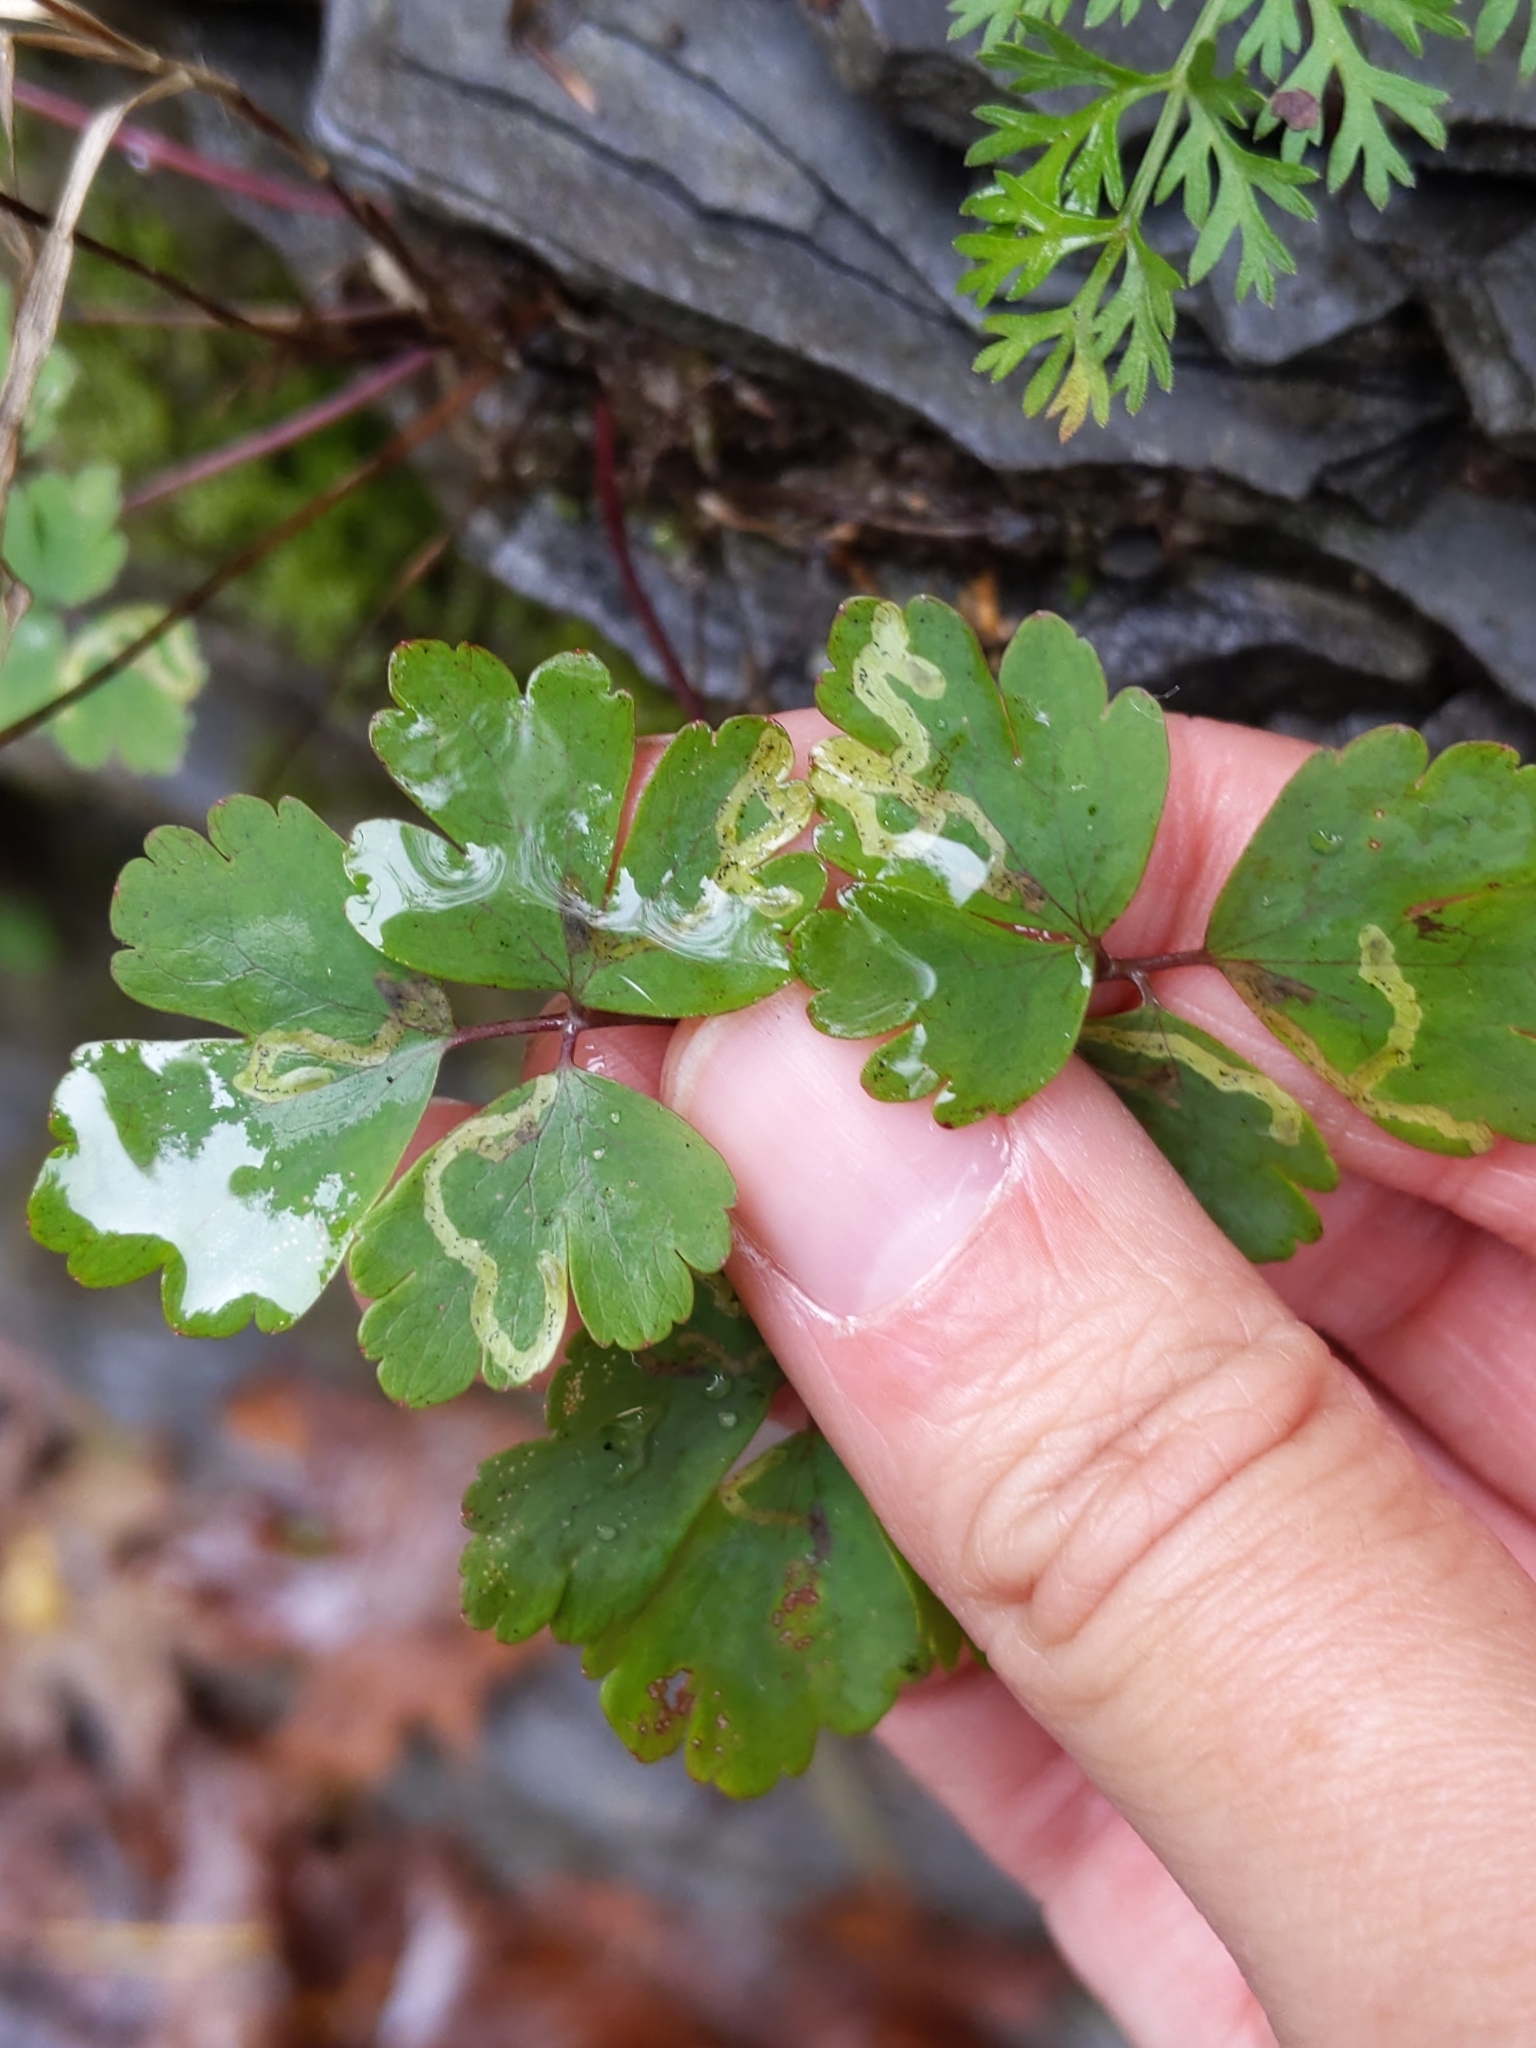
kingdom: Animalia
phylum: Arthropoda
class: Insecta
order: Diptera
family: Agromyzidae
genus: Phytomyza
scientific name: Phytomyza
